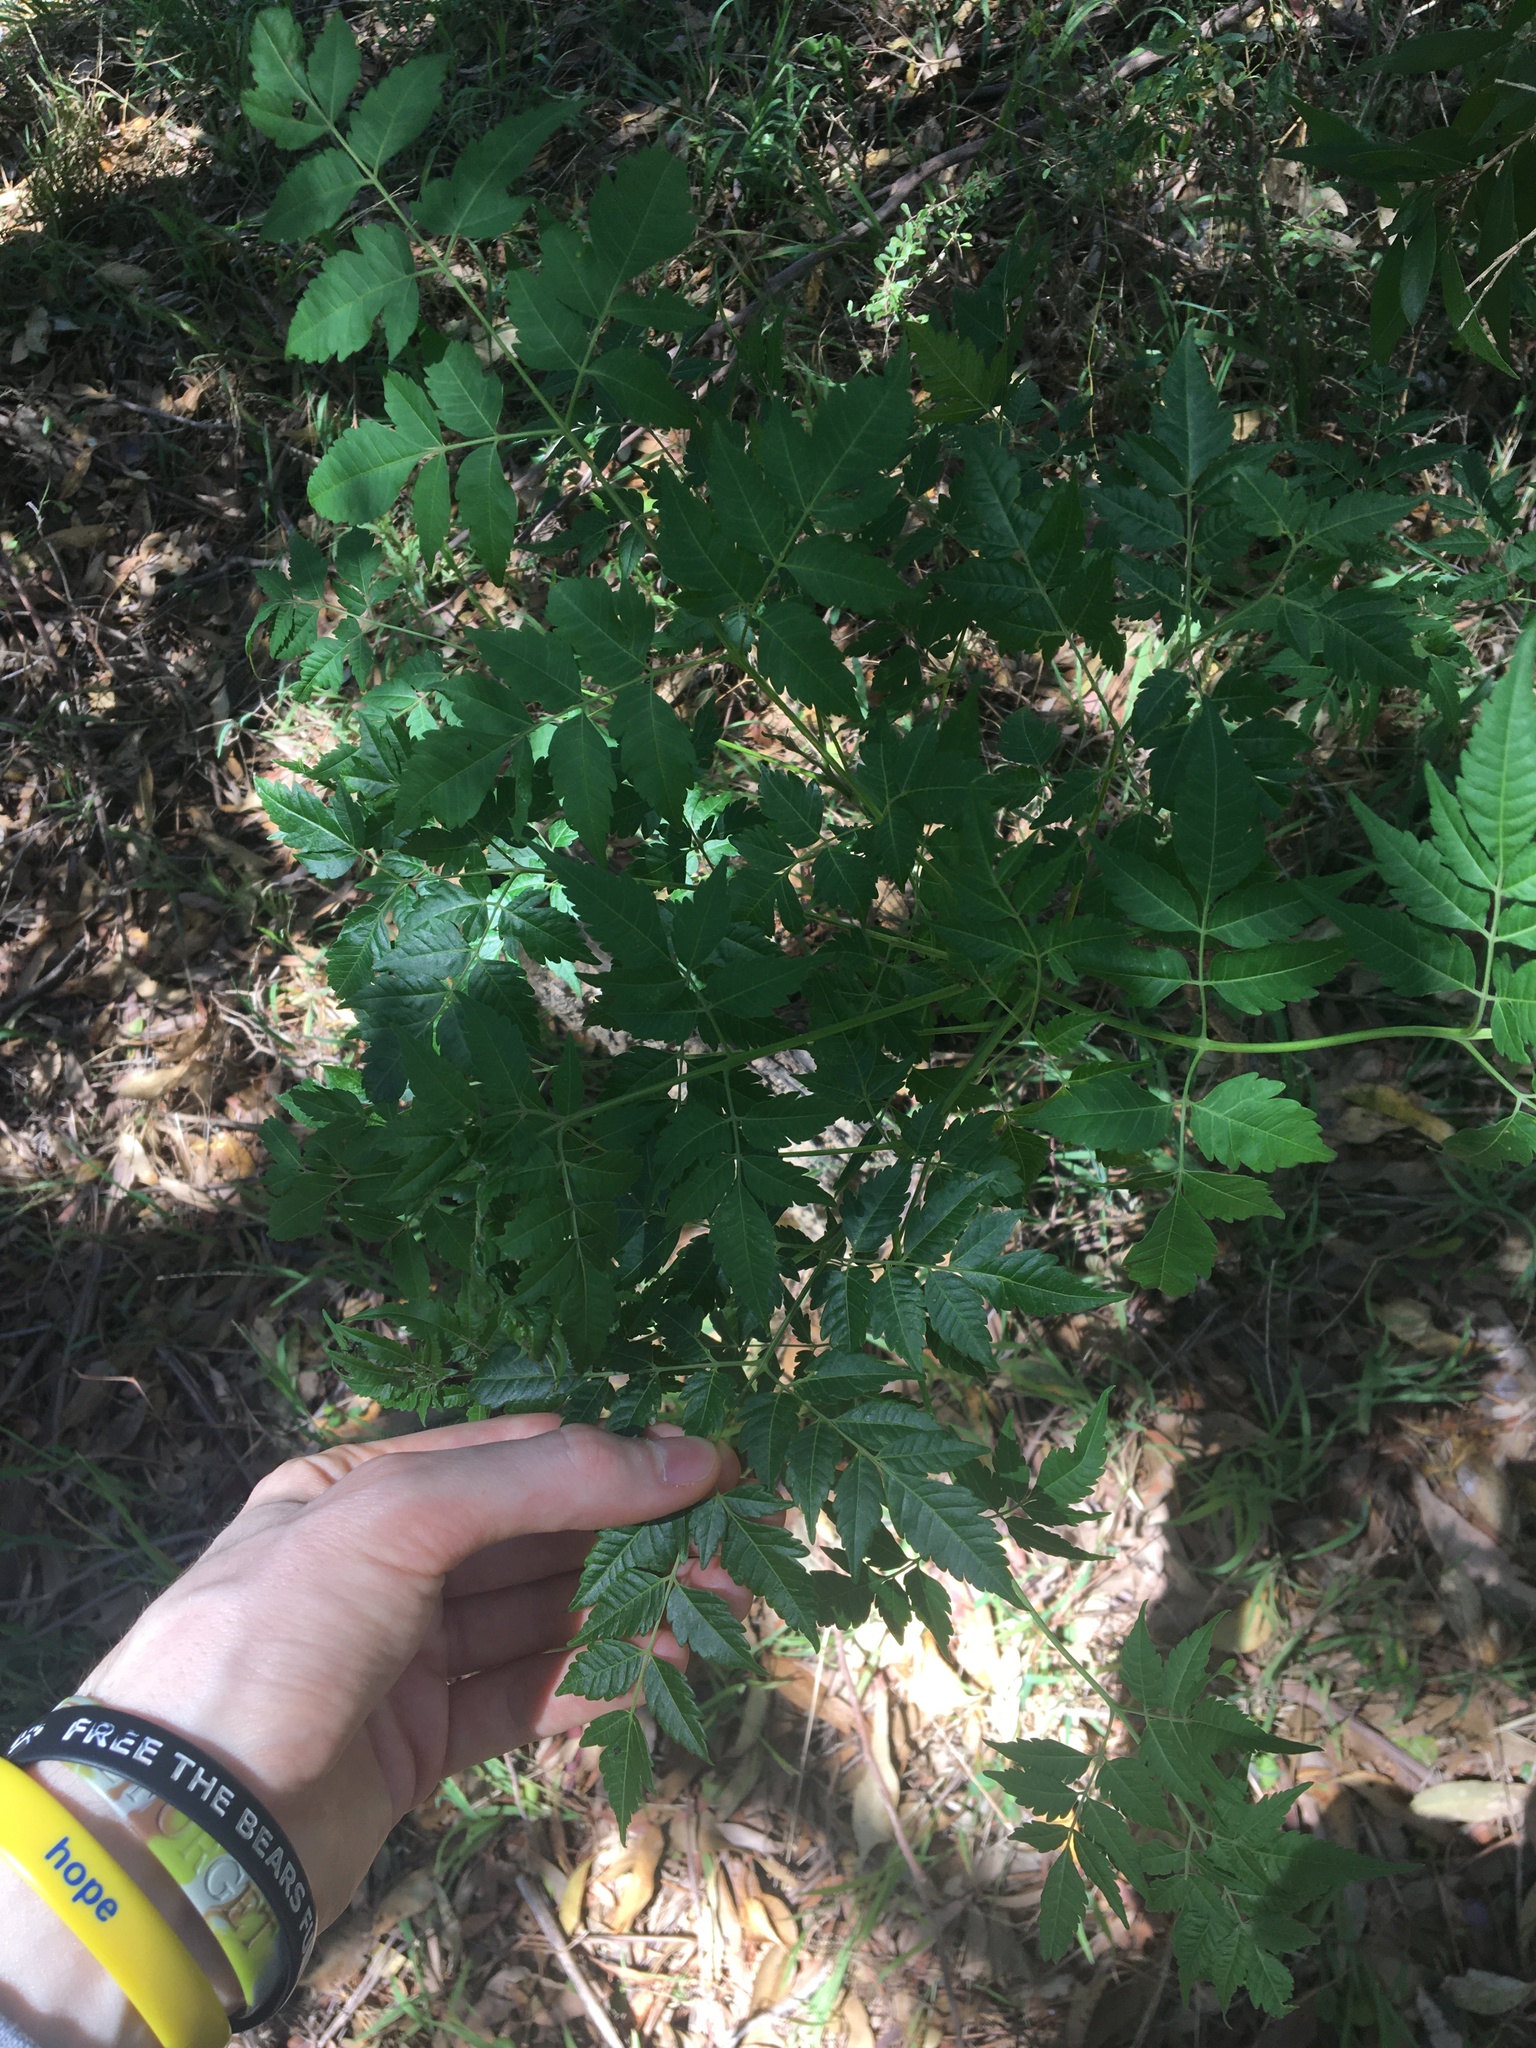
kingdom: Plantae
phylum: Tracheophyta
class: Magnoliopsida
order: Sapindales
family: Meliaceae
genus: Melia
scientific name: Melia azedarach
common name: Chinaberrytree
